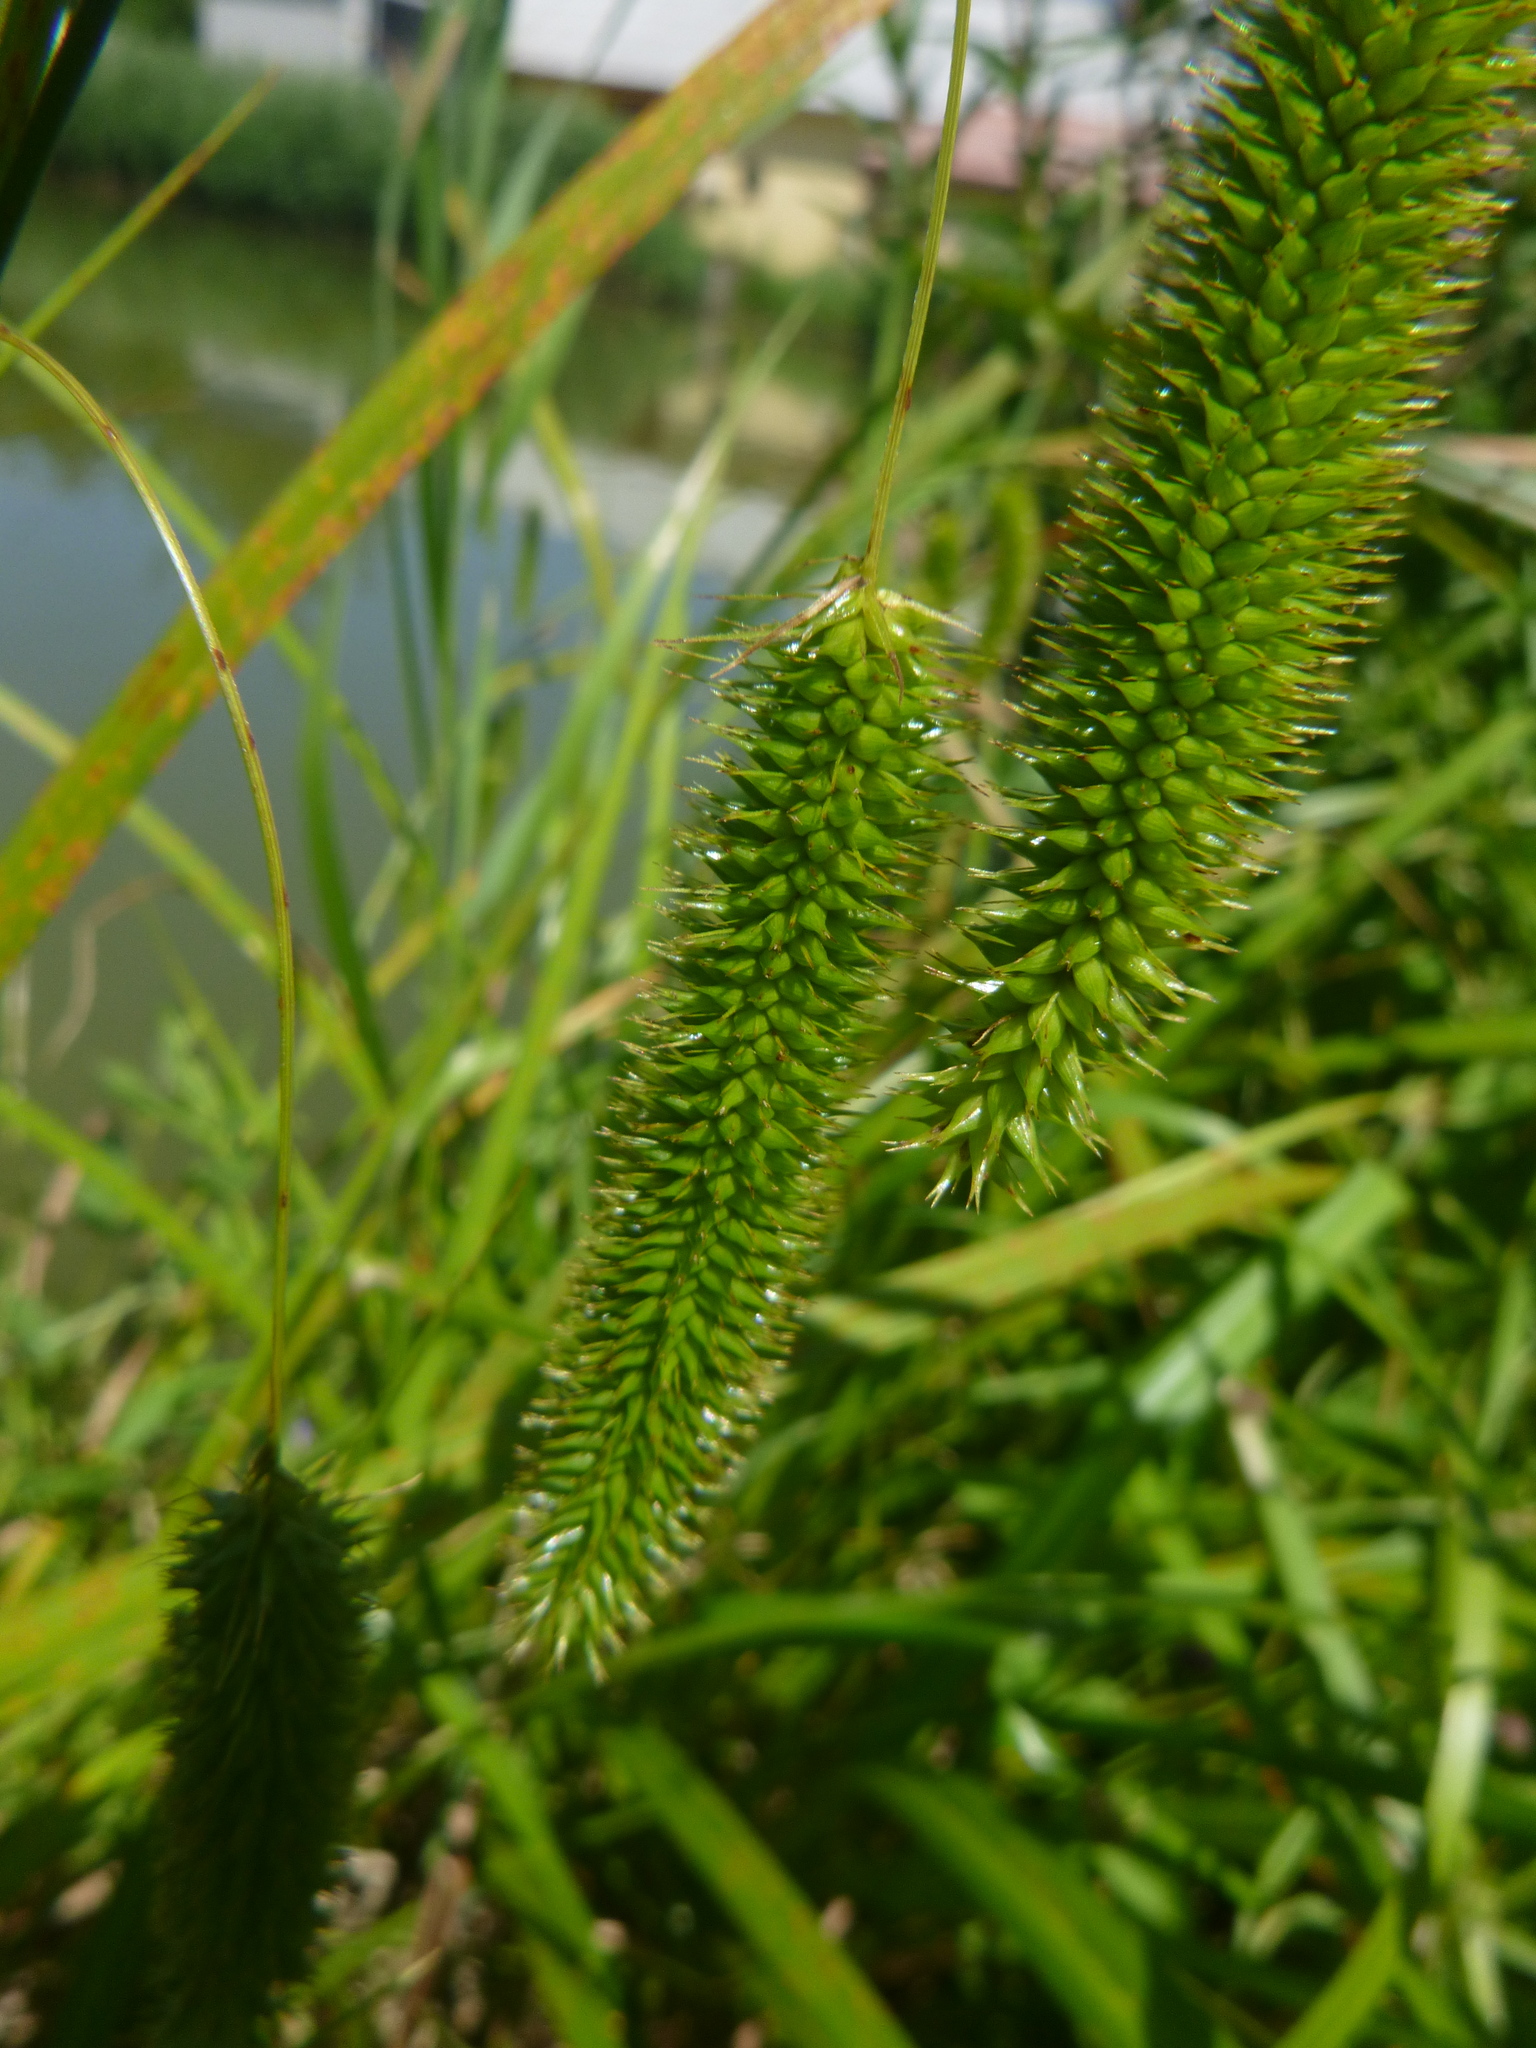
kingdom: Plantae
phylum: Tracheophyta
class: Liliopsida
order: Poales
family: Cyperaceae
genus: Carex
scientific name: Carex pseudocyperus
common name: Cyperus sedge
